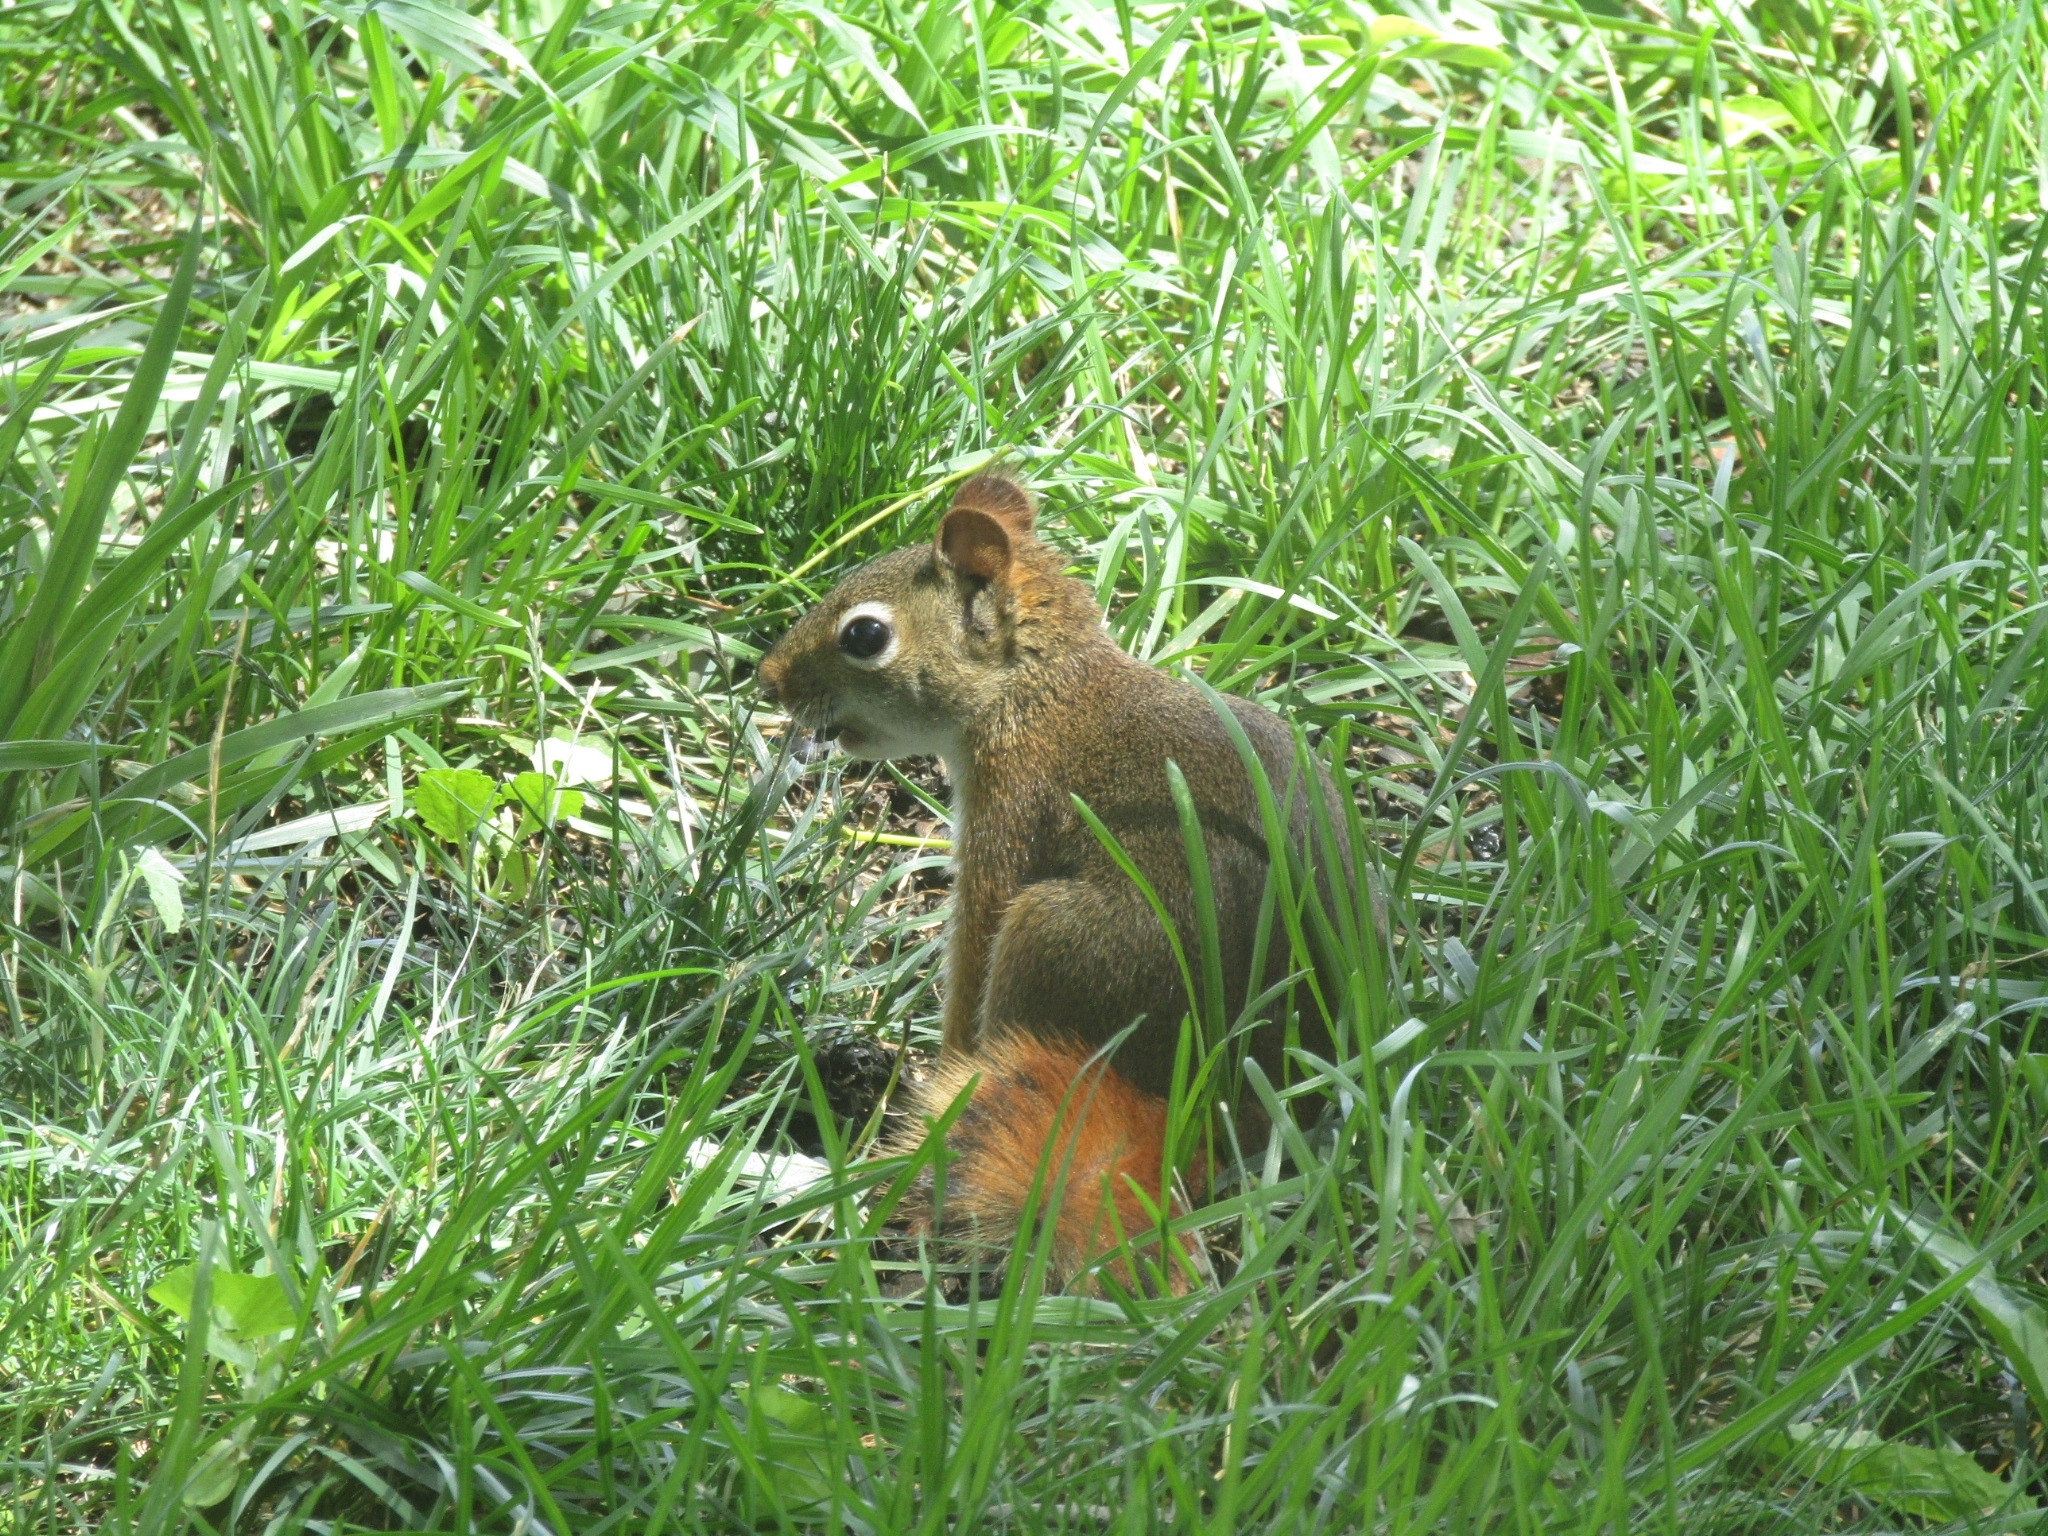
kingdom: Animalia
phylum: Chordata
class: Mammalia
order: Rodentia
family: Sciuridae
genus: Tamiasciurus
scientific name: Tamiasciurus hudsonicus
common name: Red squirrel
